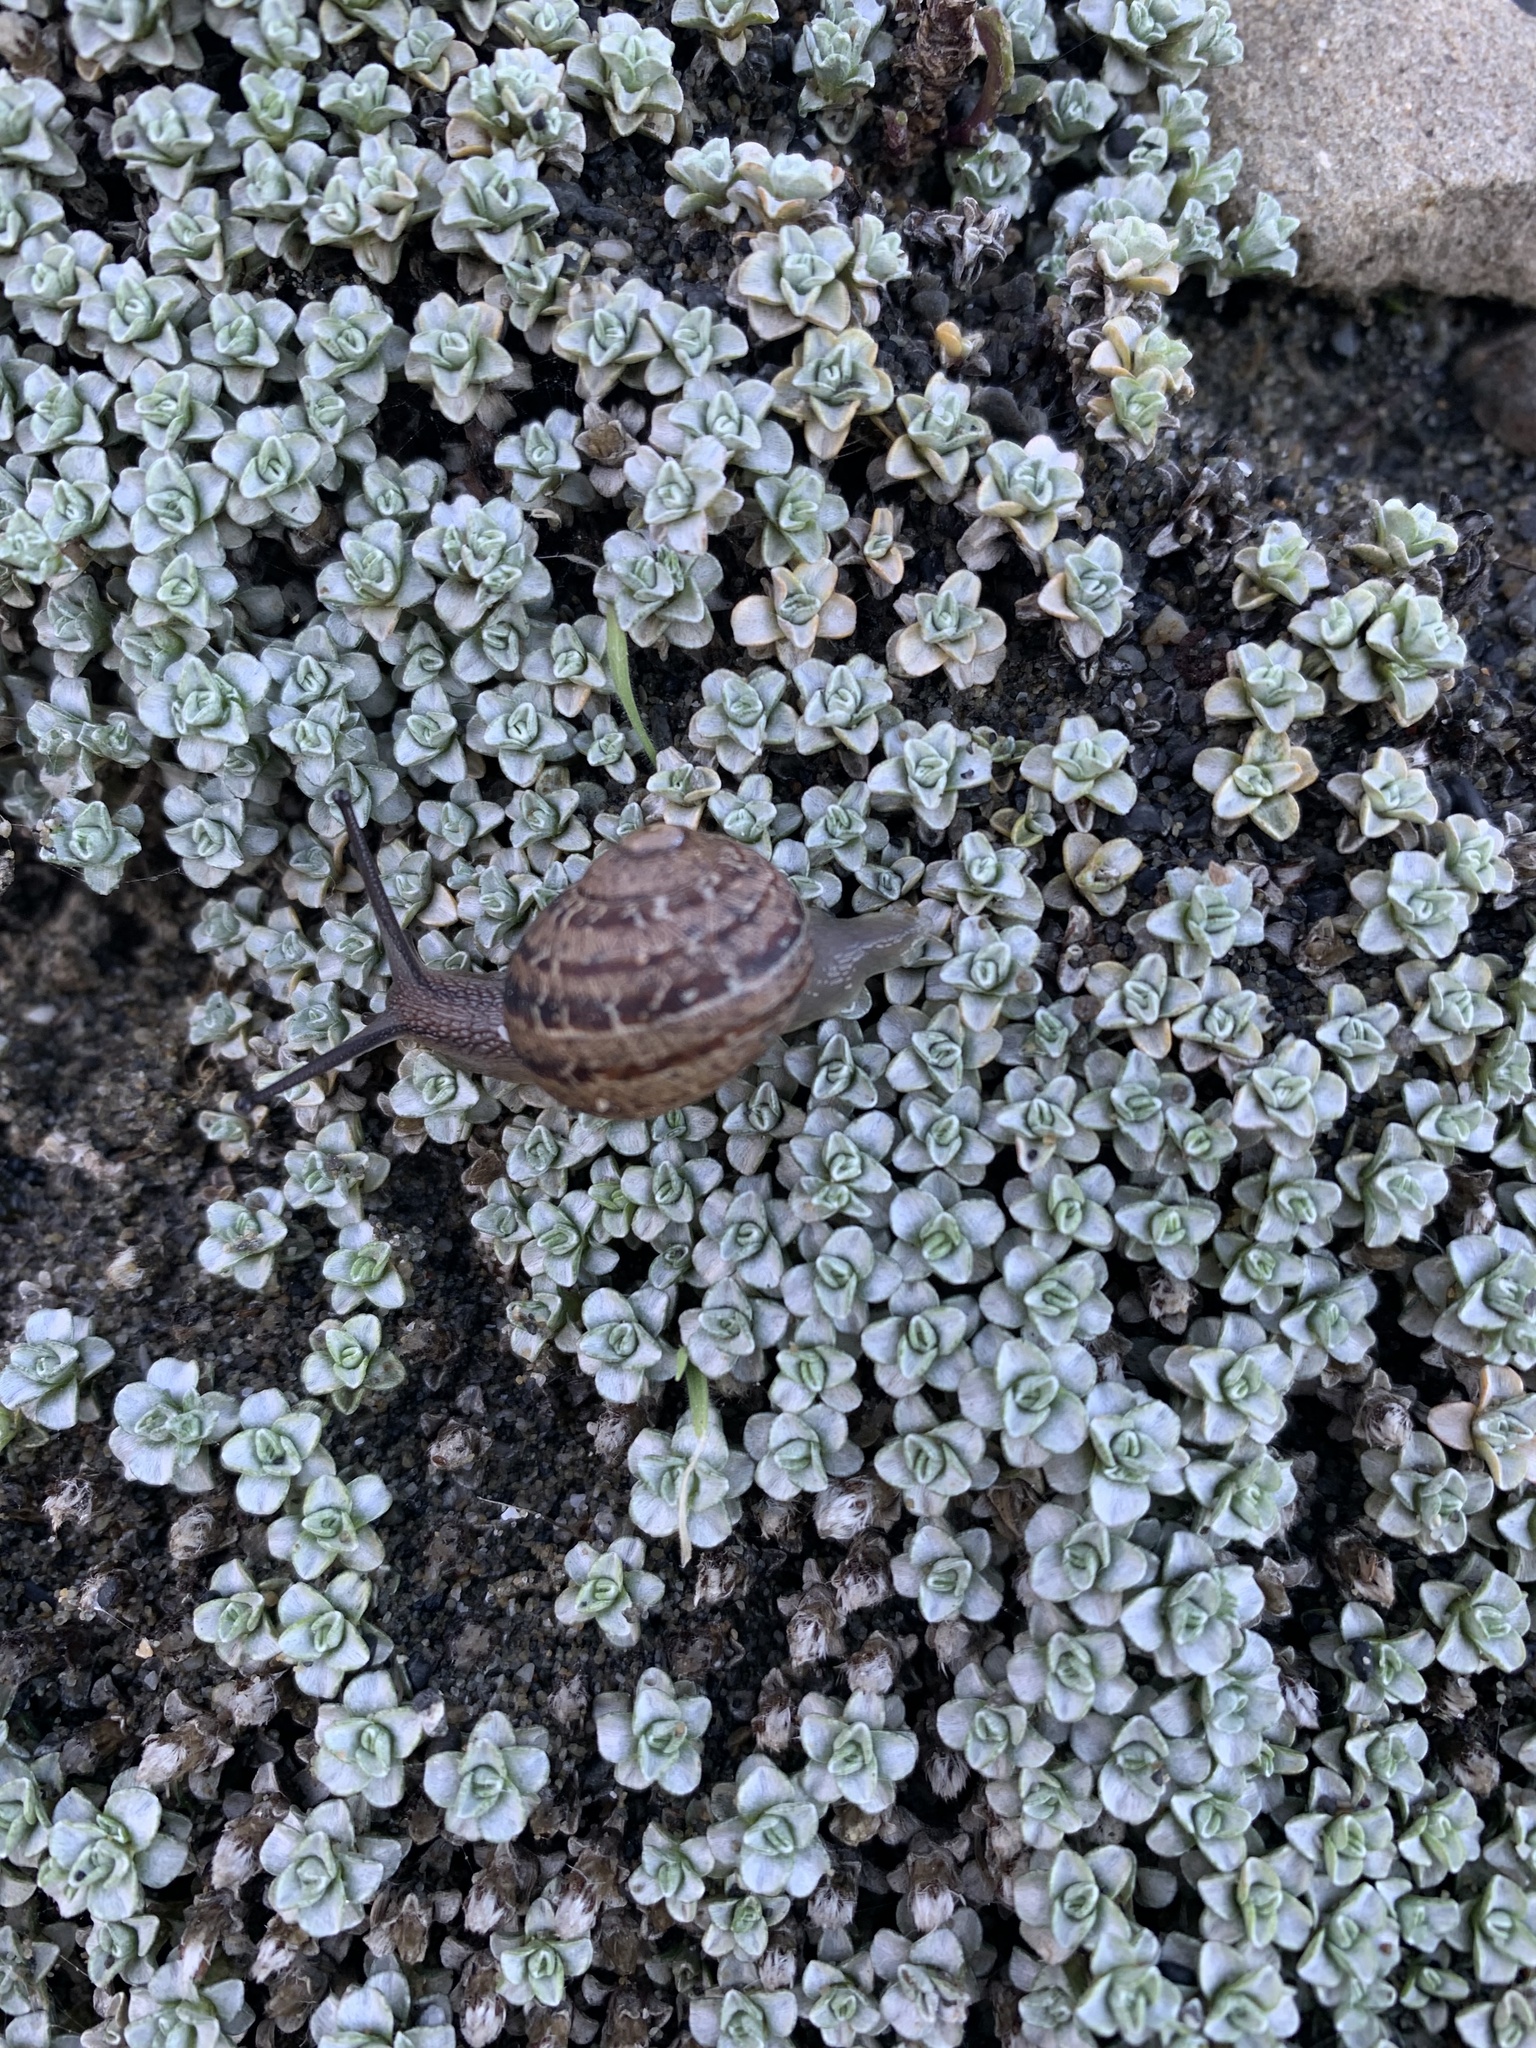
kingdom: Animalia
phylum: Mollusca
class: Gastropoda
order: Stylommatophora
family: Helicidae
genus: Cornu
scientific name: Cornu aspersum
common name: Brown garden snail
